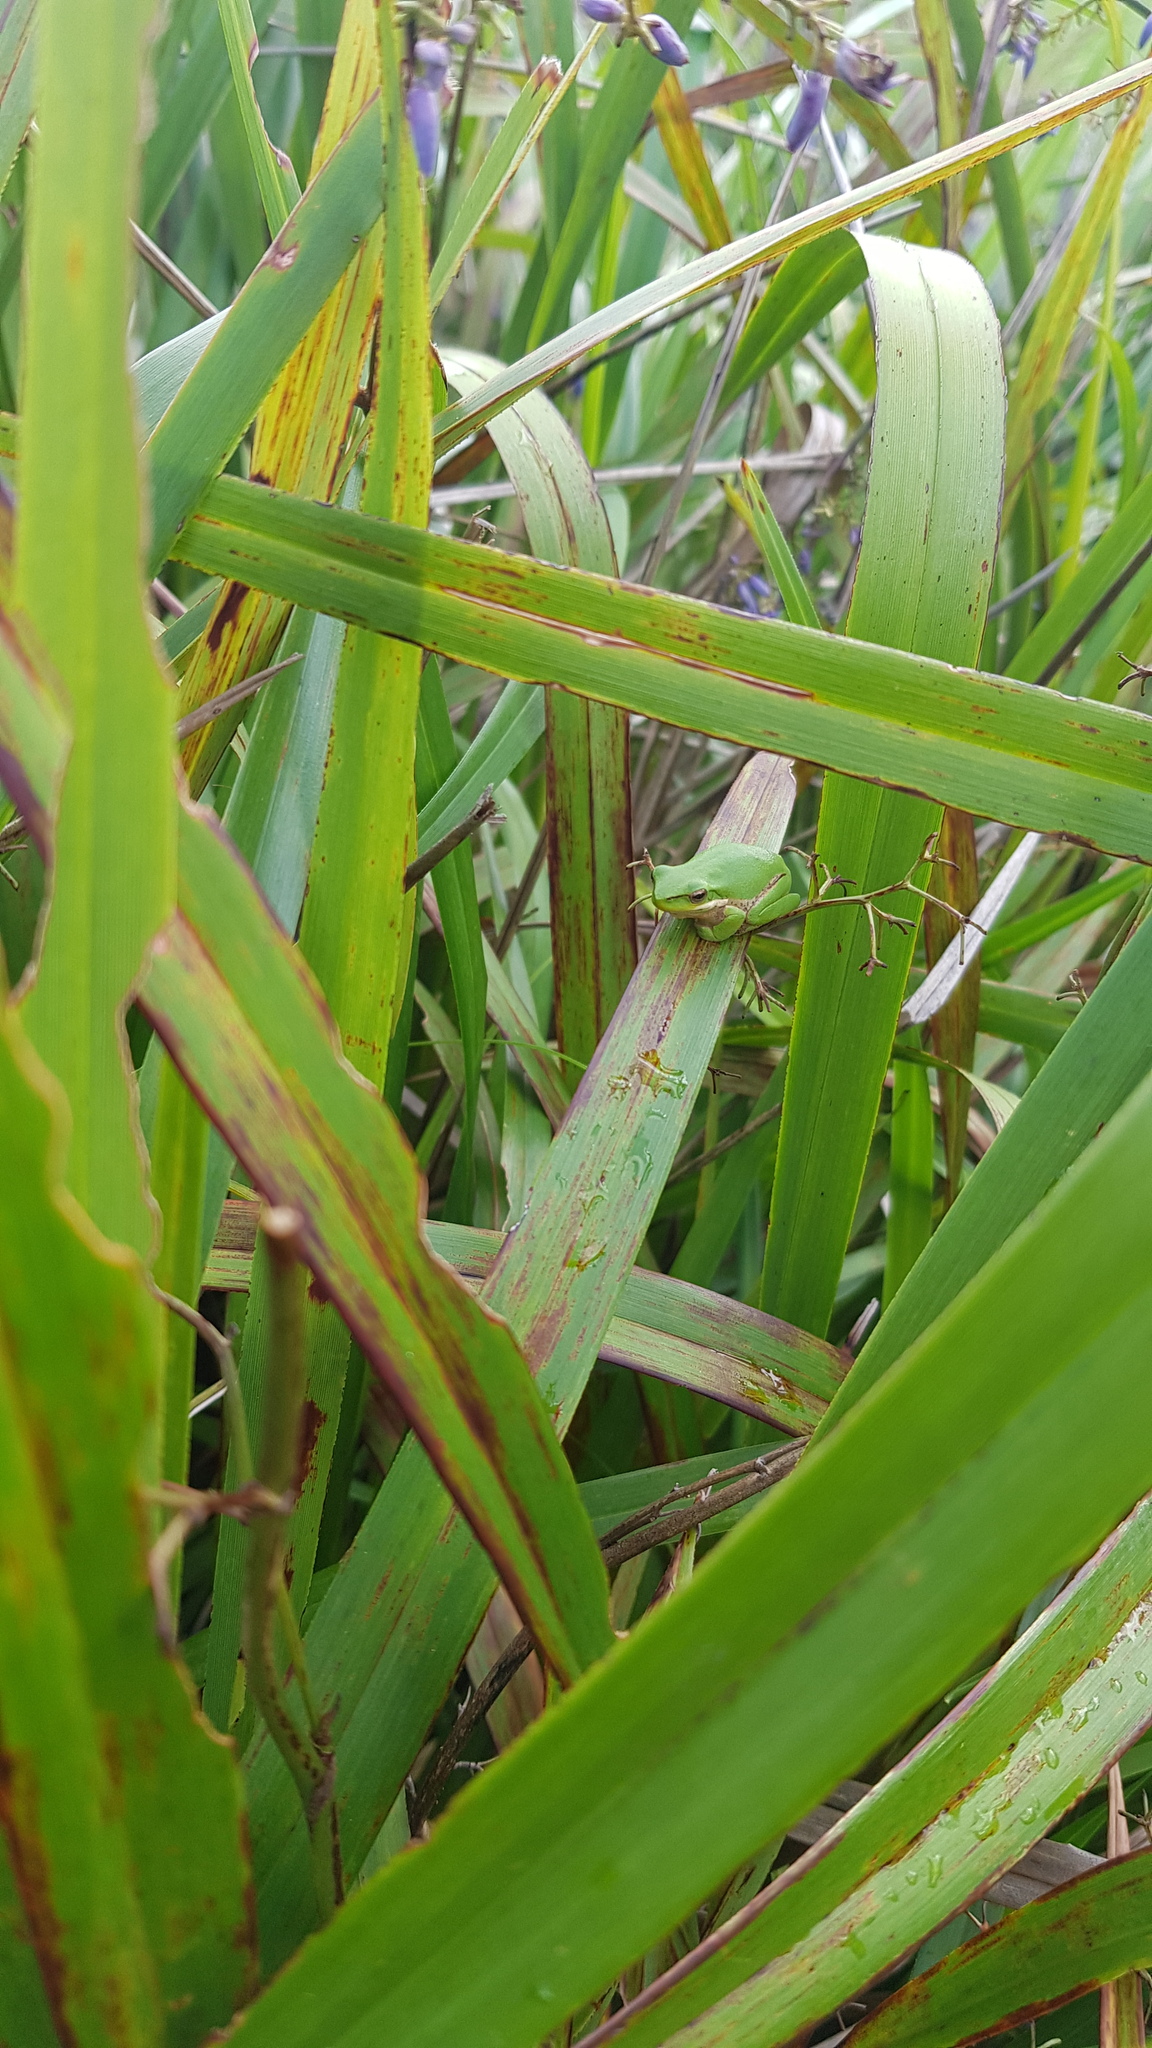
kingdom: Animalia
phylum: Chordata
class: Amphibia
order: Anura
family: Pelodryadidae
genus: Litoria
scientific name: Litoria fallax
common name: Eastern dwarf treefrog
